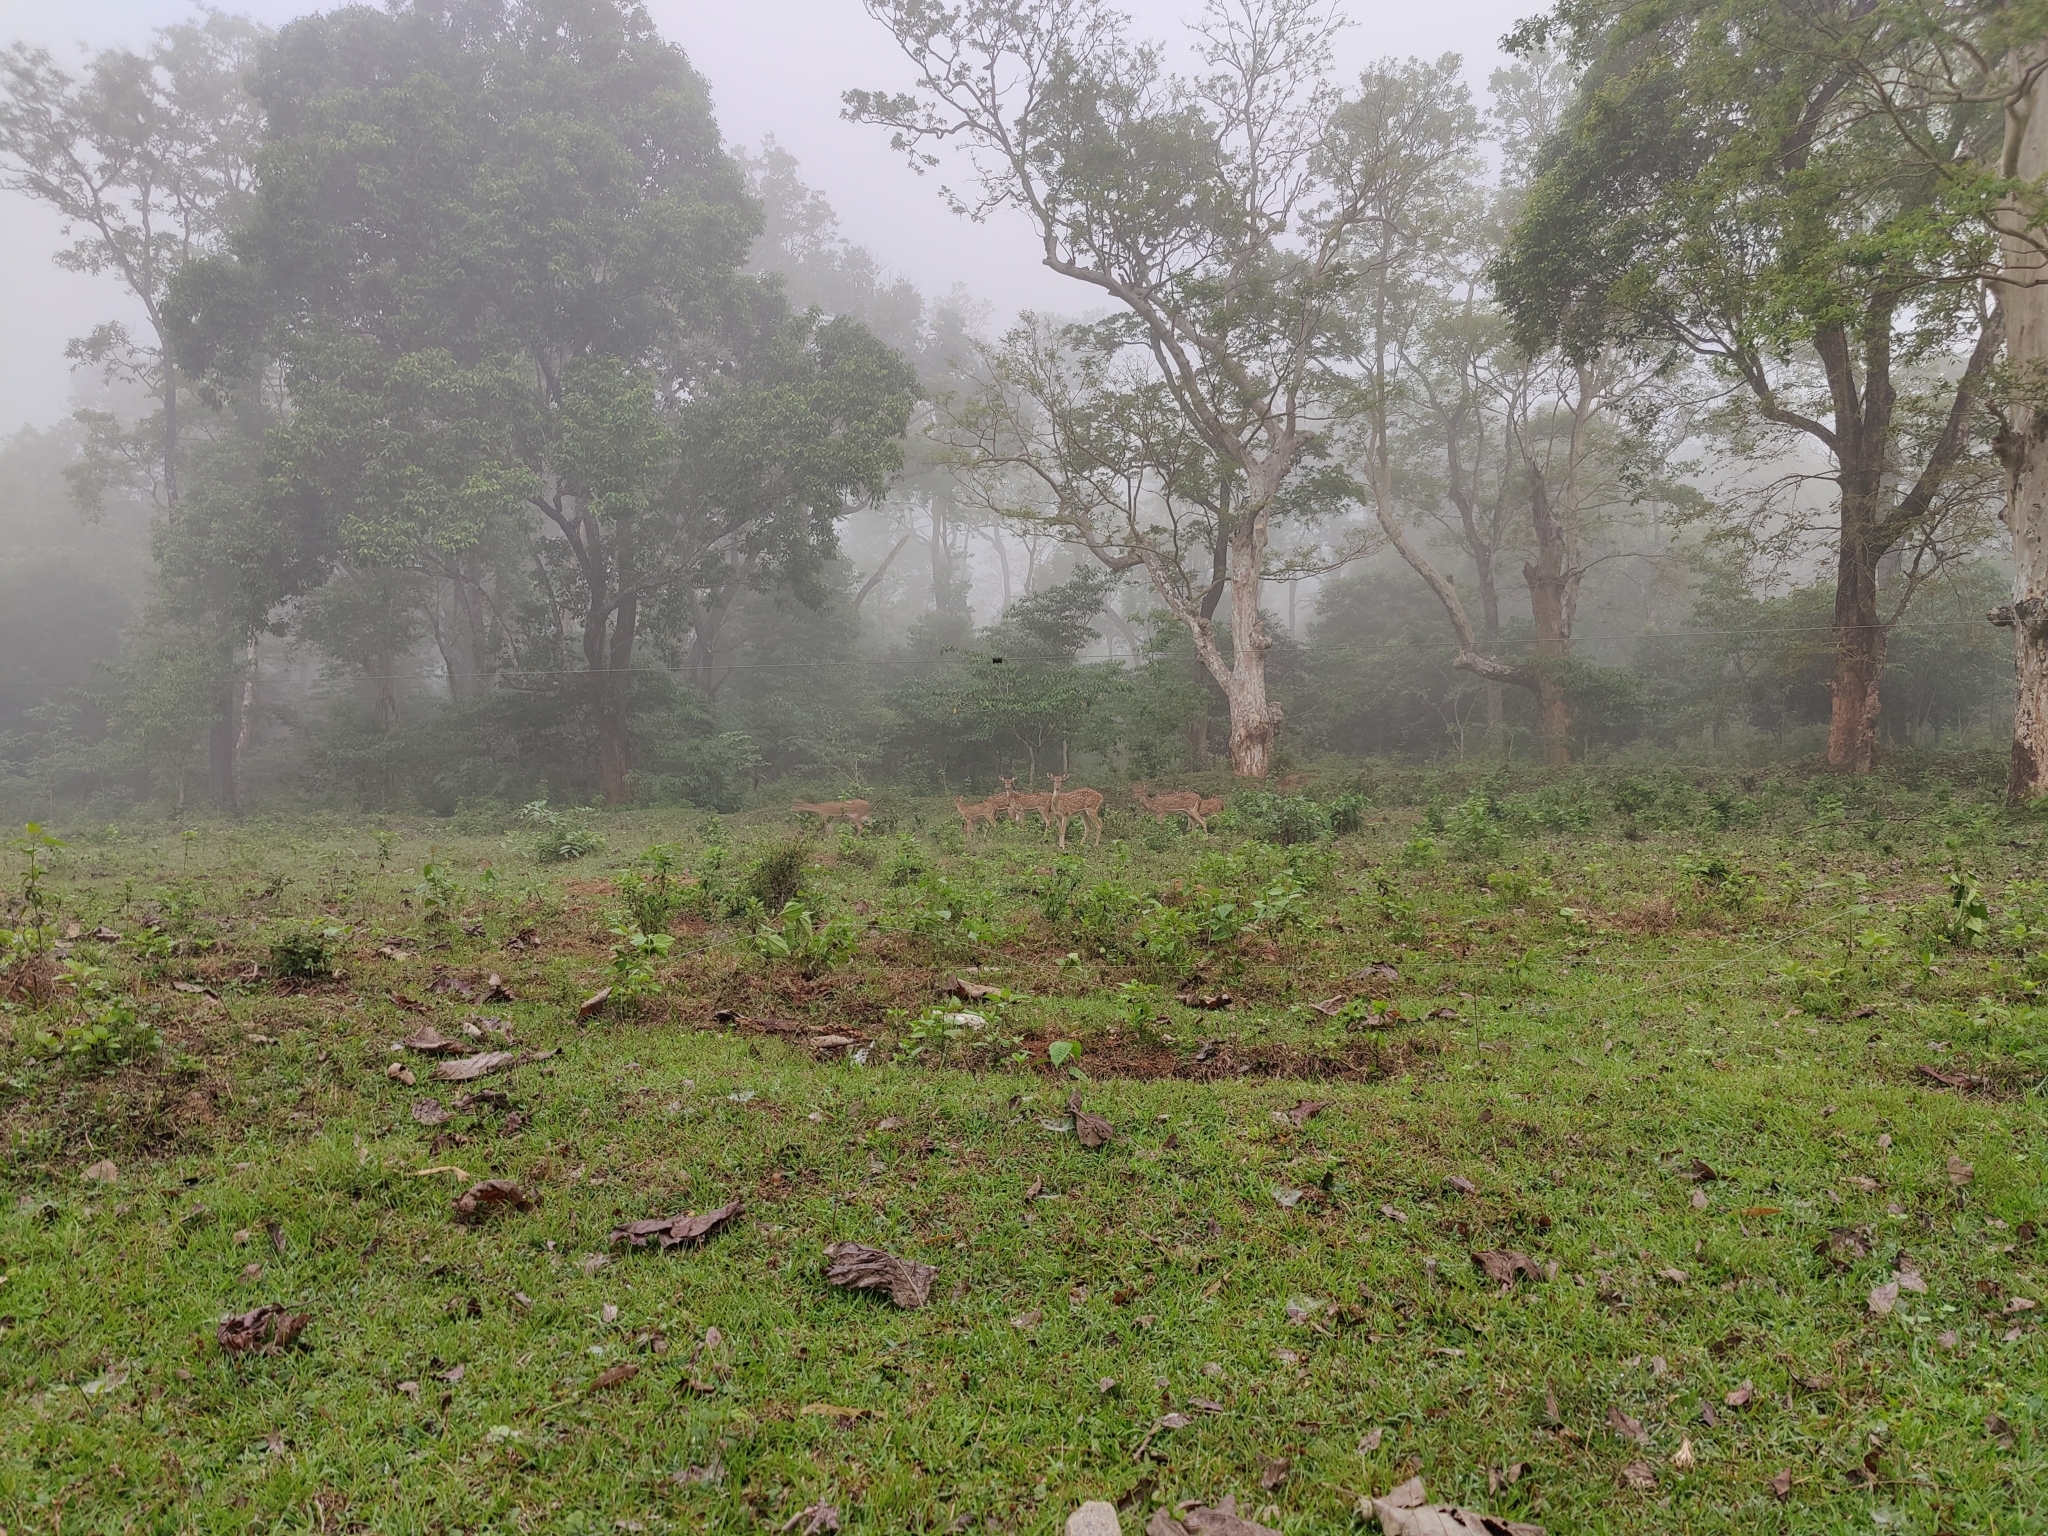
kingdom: Animalia
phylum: Chordata
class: Mammalia
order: Artiodactyla
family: Cervidae
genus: Axis
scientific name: Axis axis
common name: Chital
